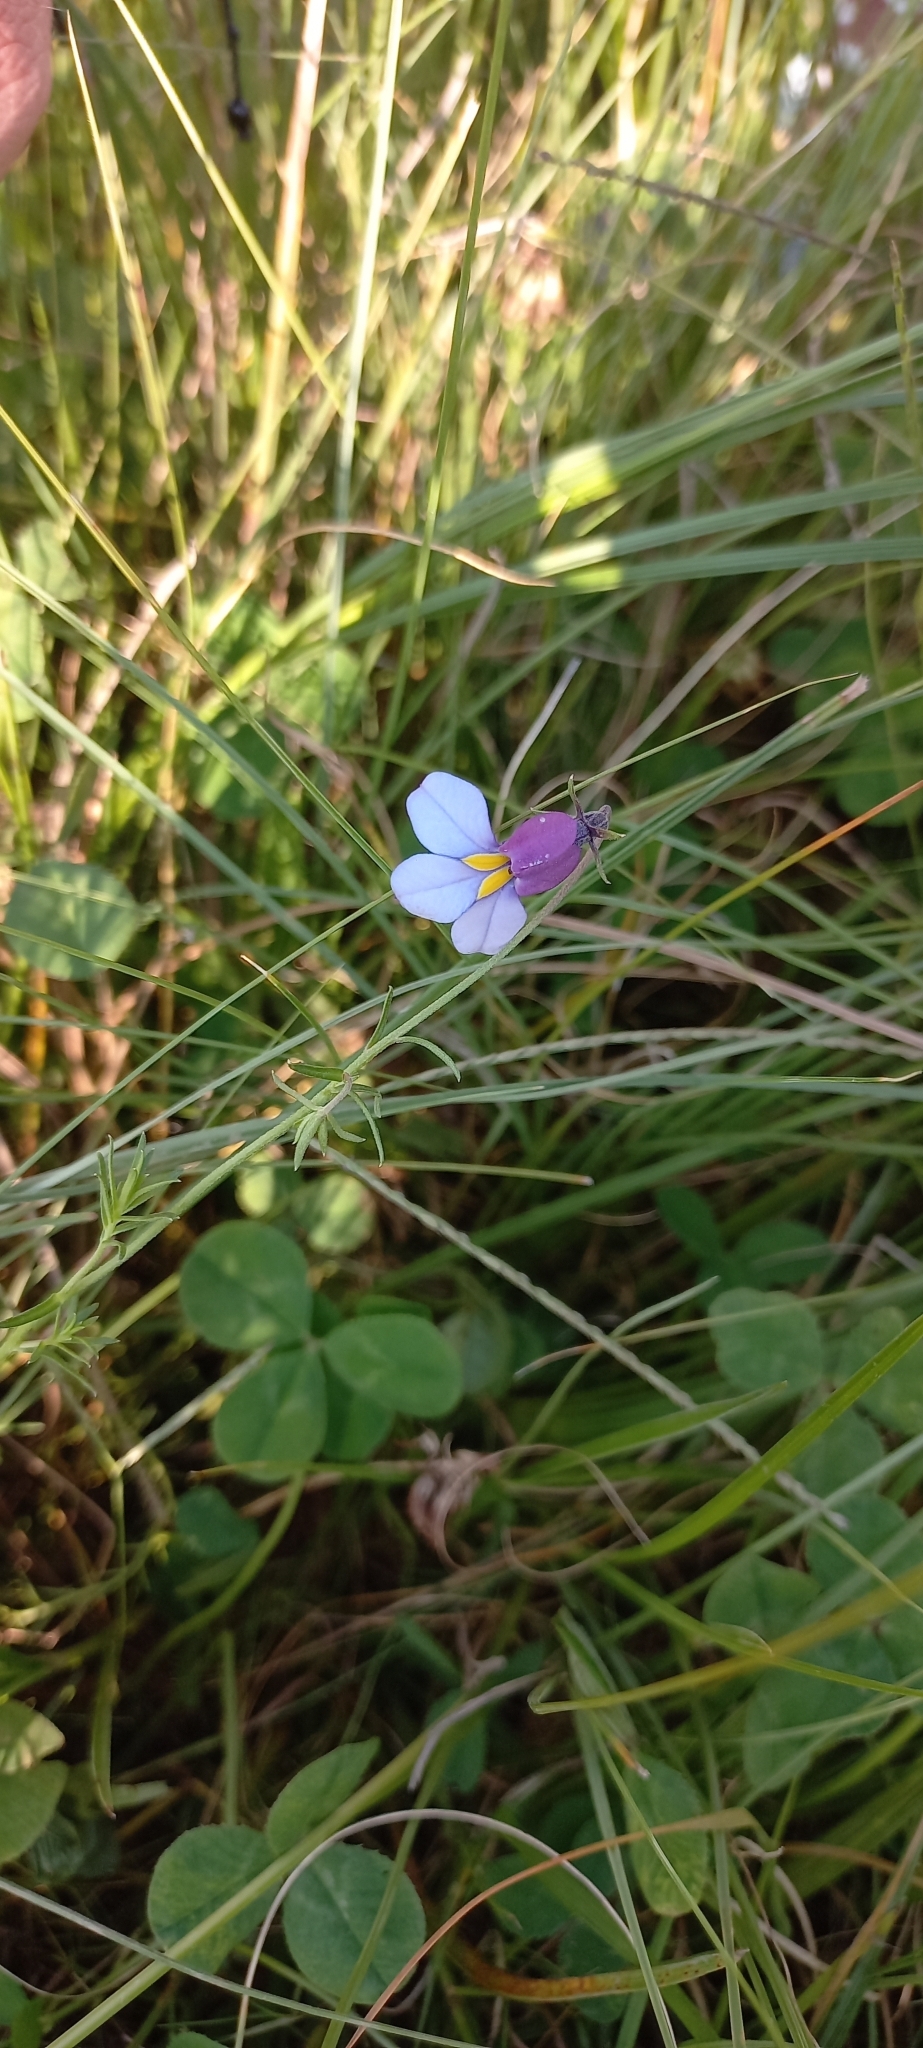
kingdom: Plantae
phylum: Tracheophyta
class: Magnoliopsida
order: Asterales
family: Campanulaceae
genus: Monopsis
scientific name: Monopsis decipiens
